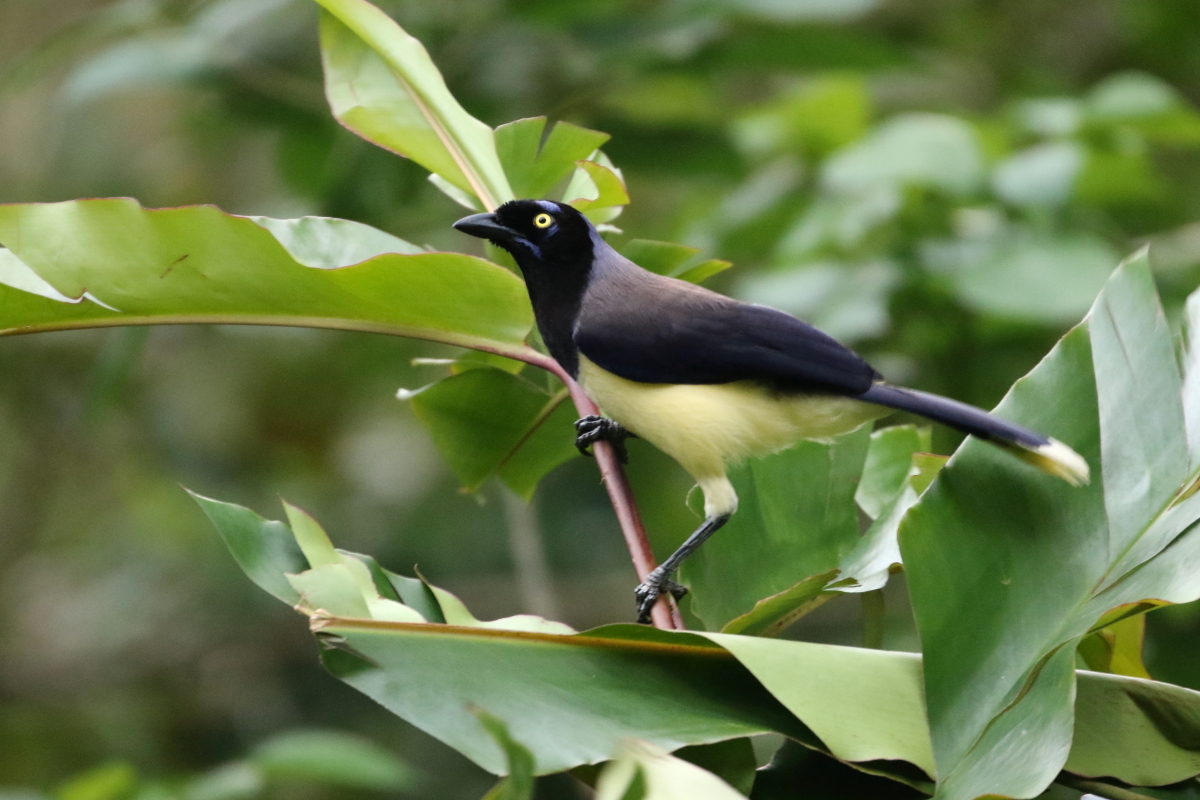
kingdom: Animalia
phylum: Chordata
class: Aves
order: Passeriformes
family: Corvidae
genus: Cyanocorax
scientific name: Cyanocorax affinis
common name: Black-chested jay
